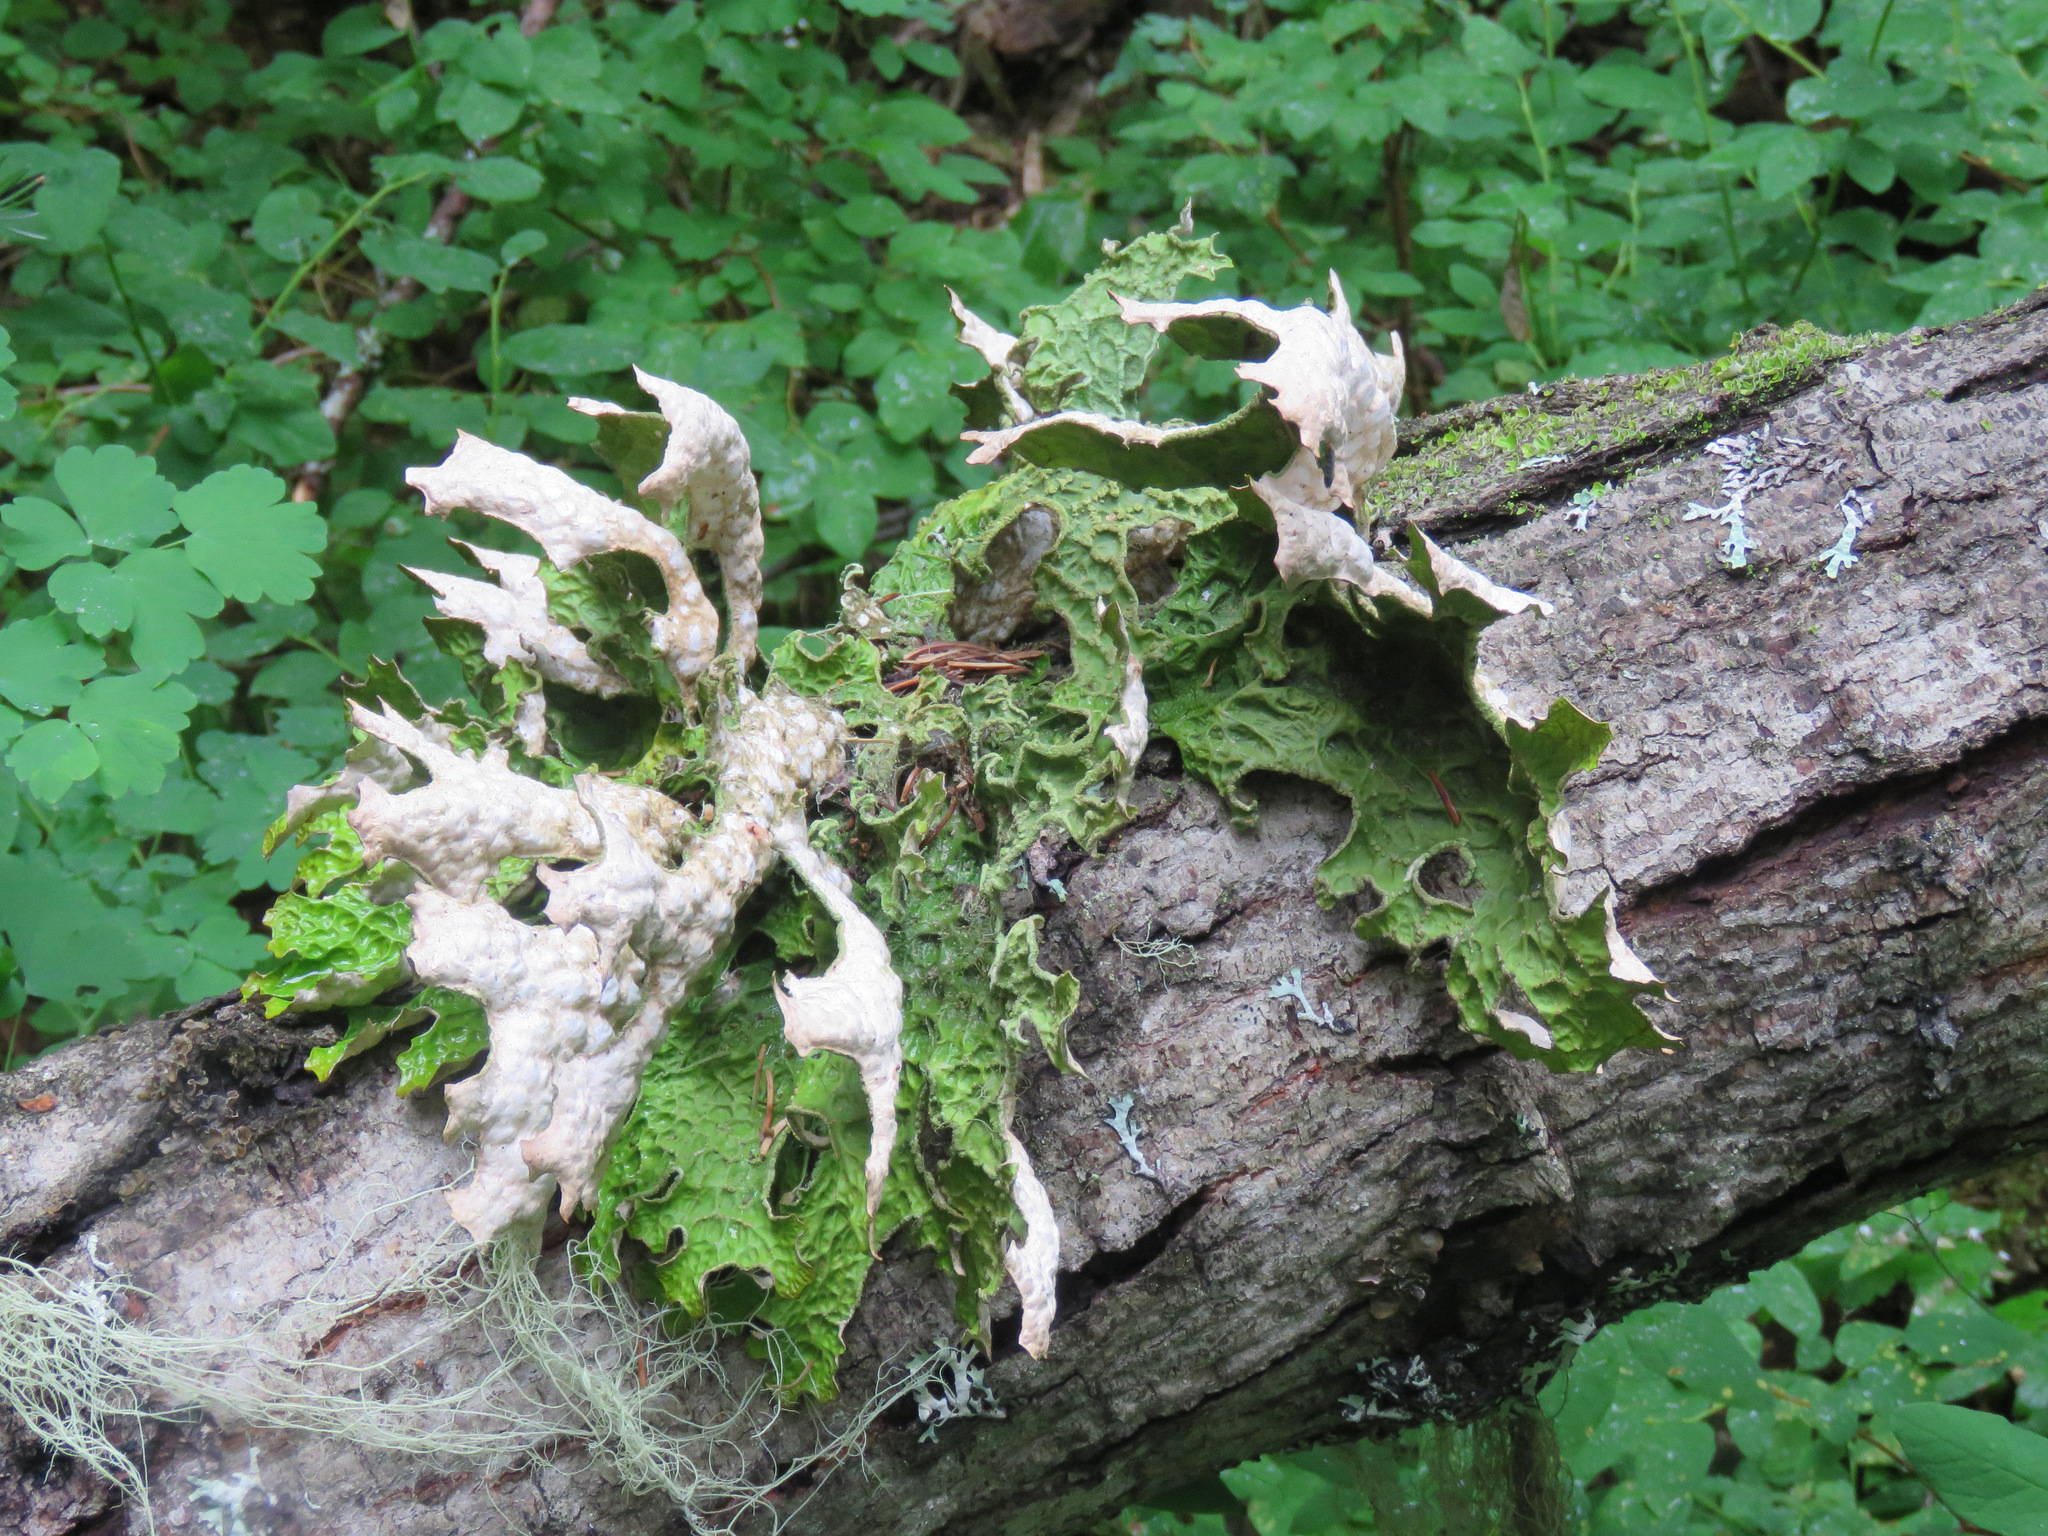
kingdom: Fungi
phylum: Ascomycota
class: Lecanoromycetes
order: Peltigerales
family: Lobariaceae
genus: Lobaria
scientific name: Lobaria pulmonaria
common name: Lungwort
